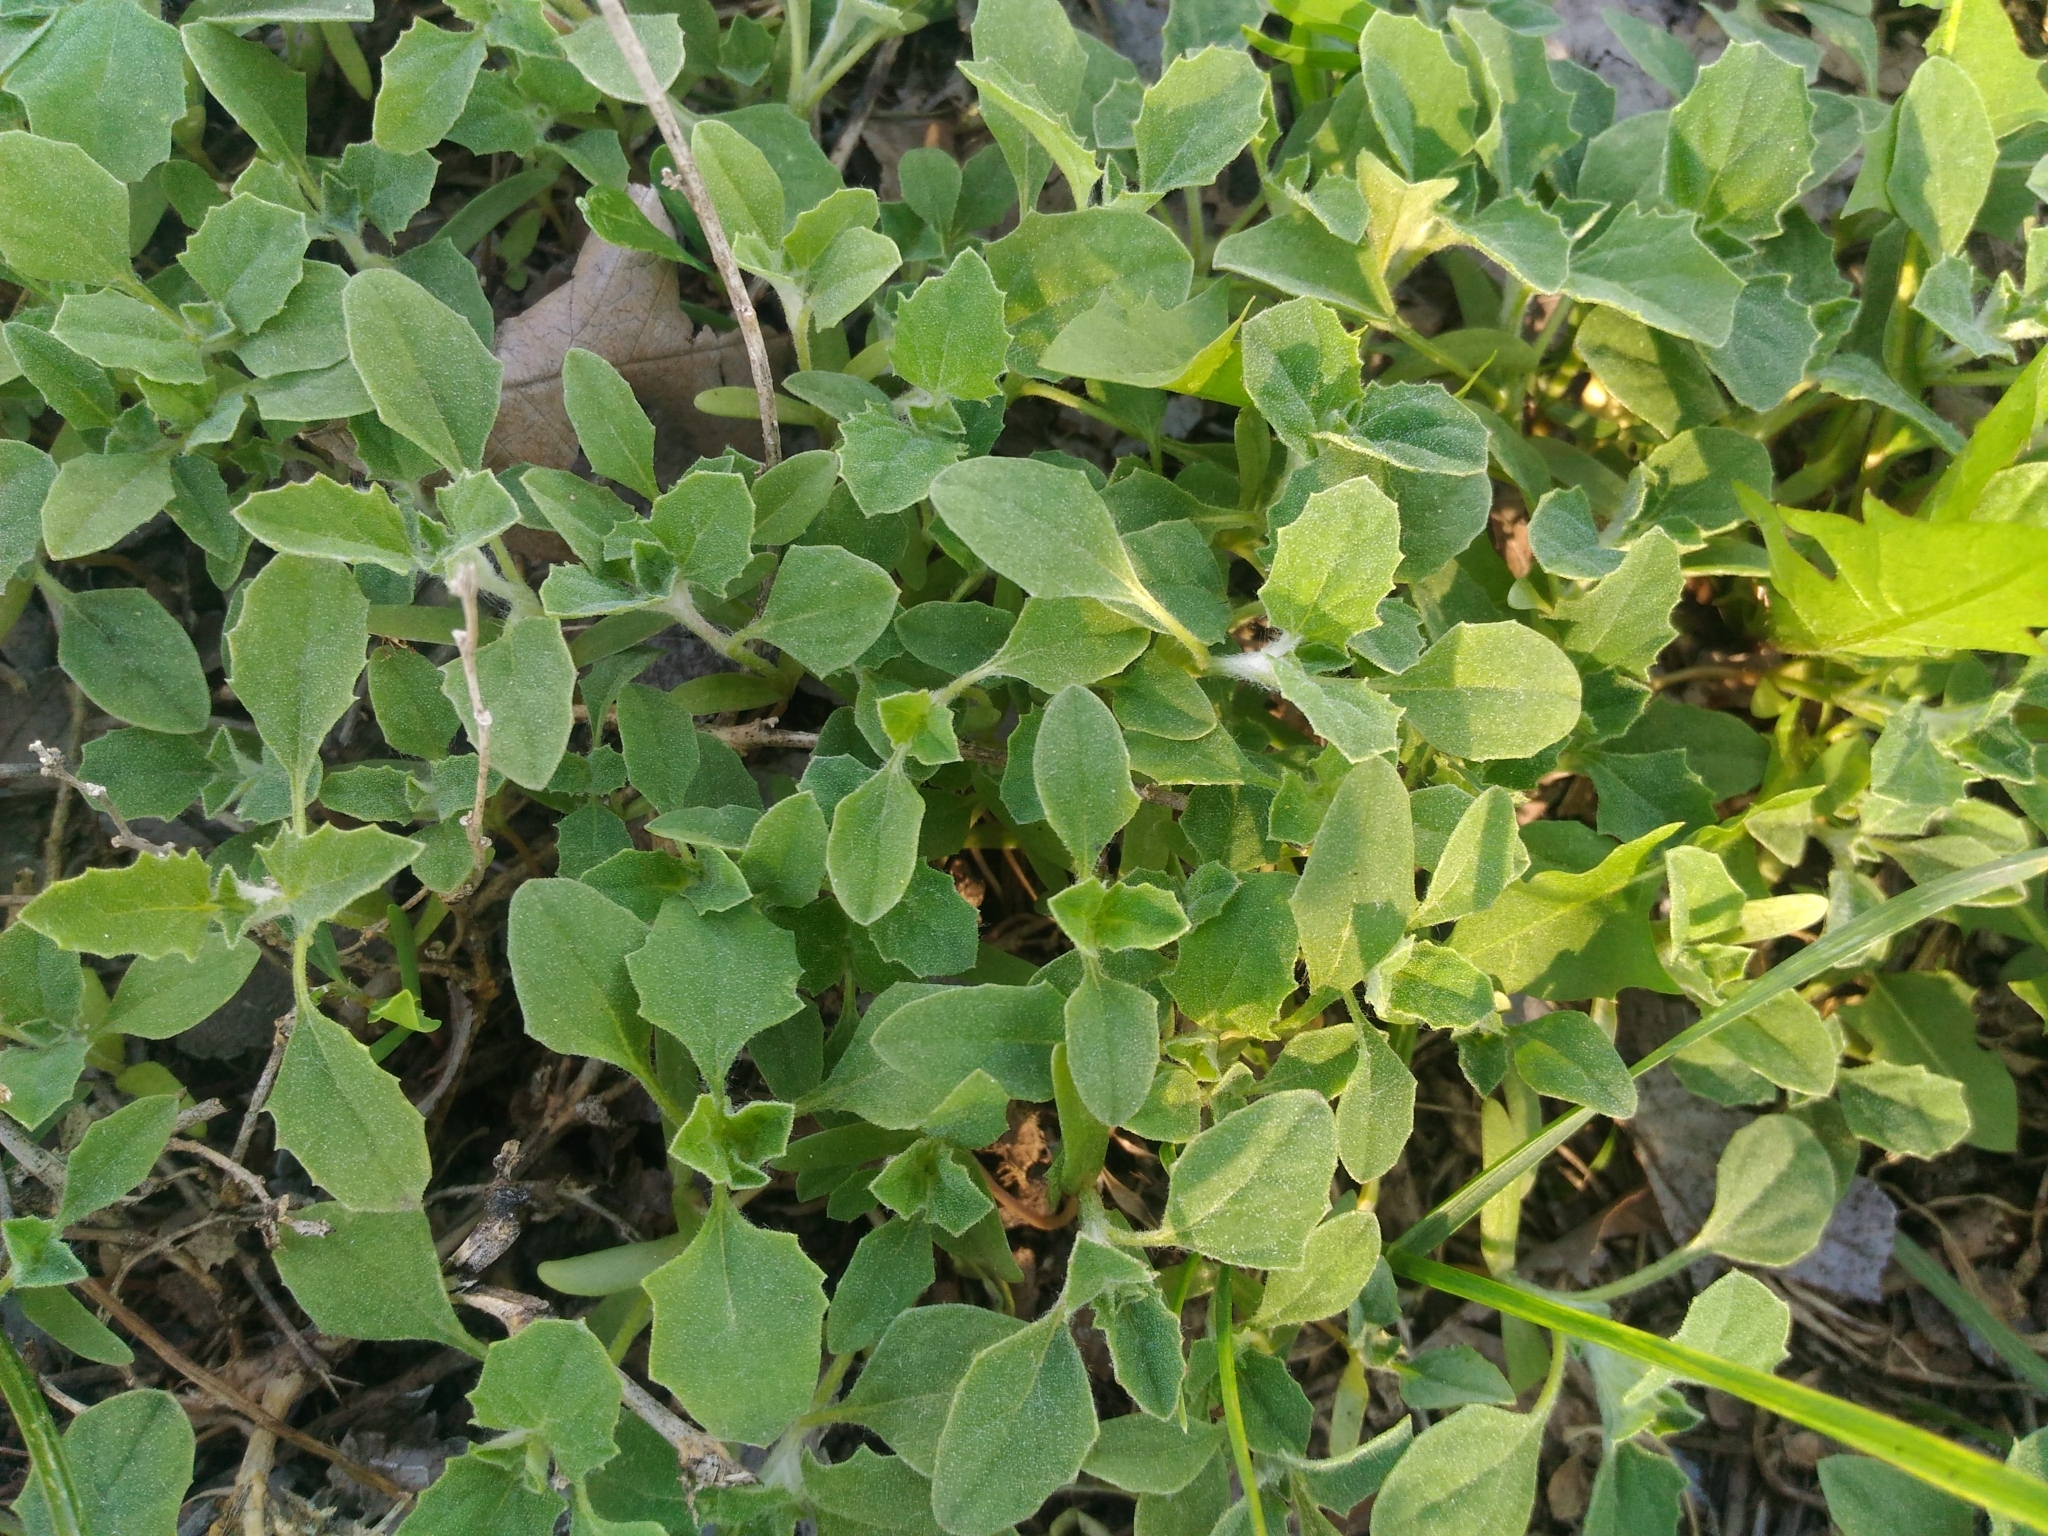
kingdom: Plantae
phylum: Tracheophyta
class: Magnoliopsida
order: Caryophyllales
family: Amaranthaceae
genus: Atriplex
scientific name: Atriplex tatarica
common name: Tatarian orache
